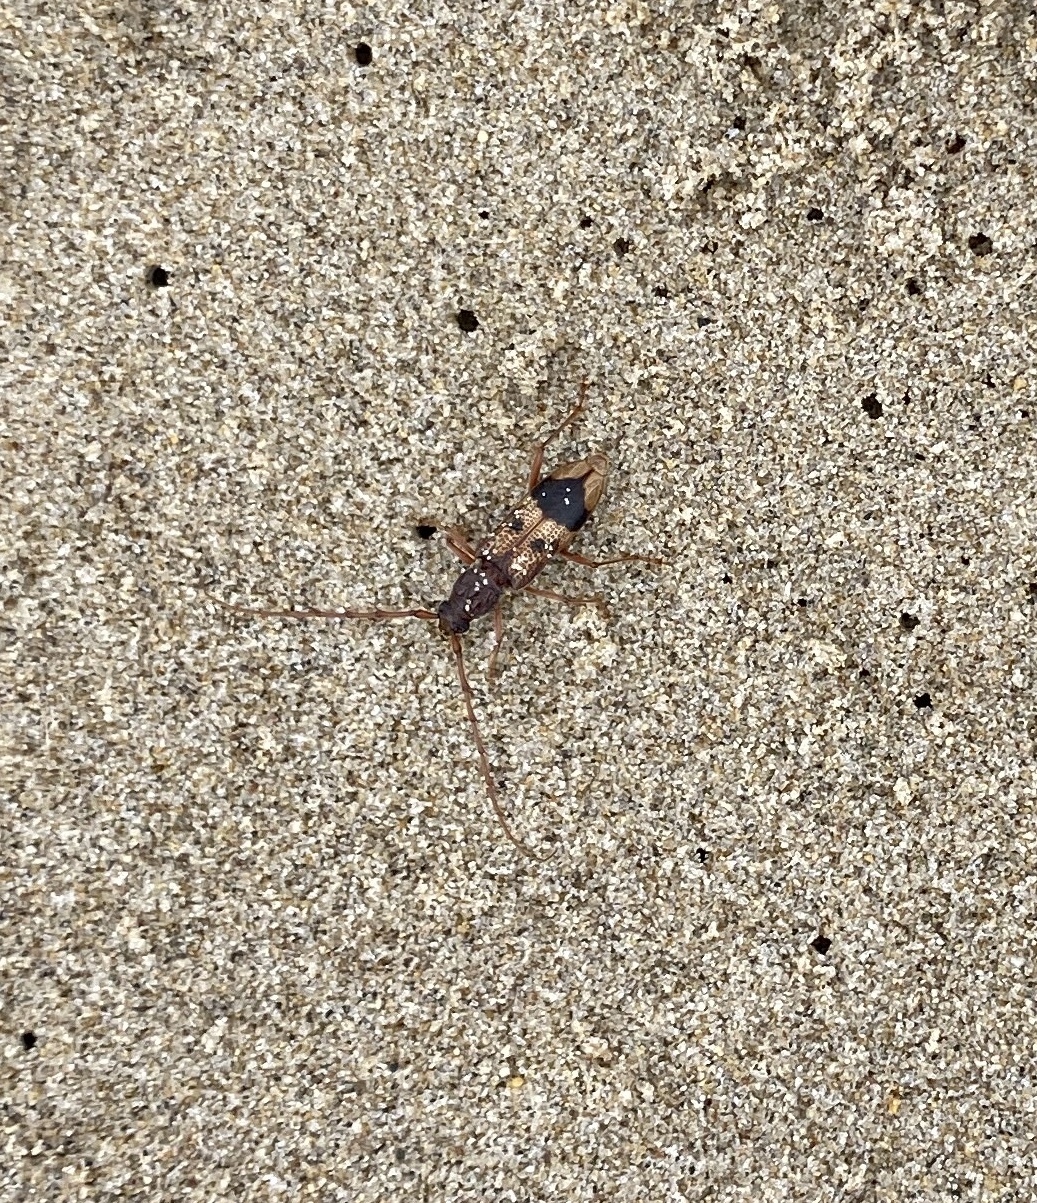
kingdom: Animalia
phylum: Arthropoda
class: Insecta
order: Coleoptera
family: Cerambycidae
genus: Phoracantha
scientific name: Phoracantha recurva
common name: Eucalyptus longhorned borer
